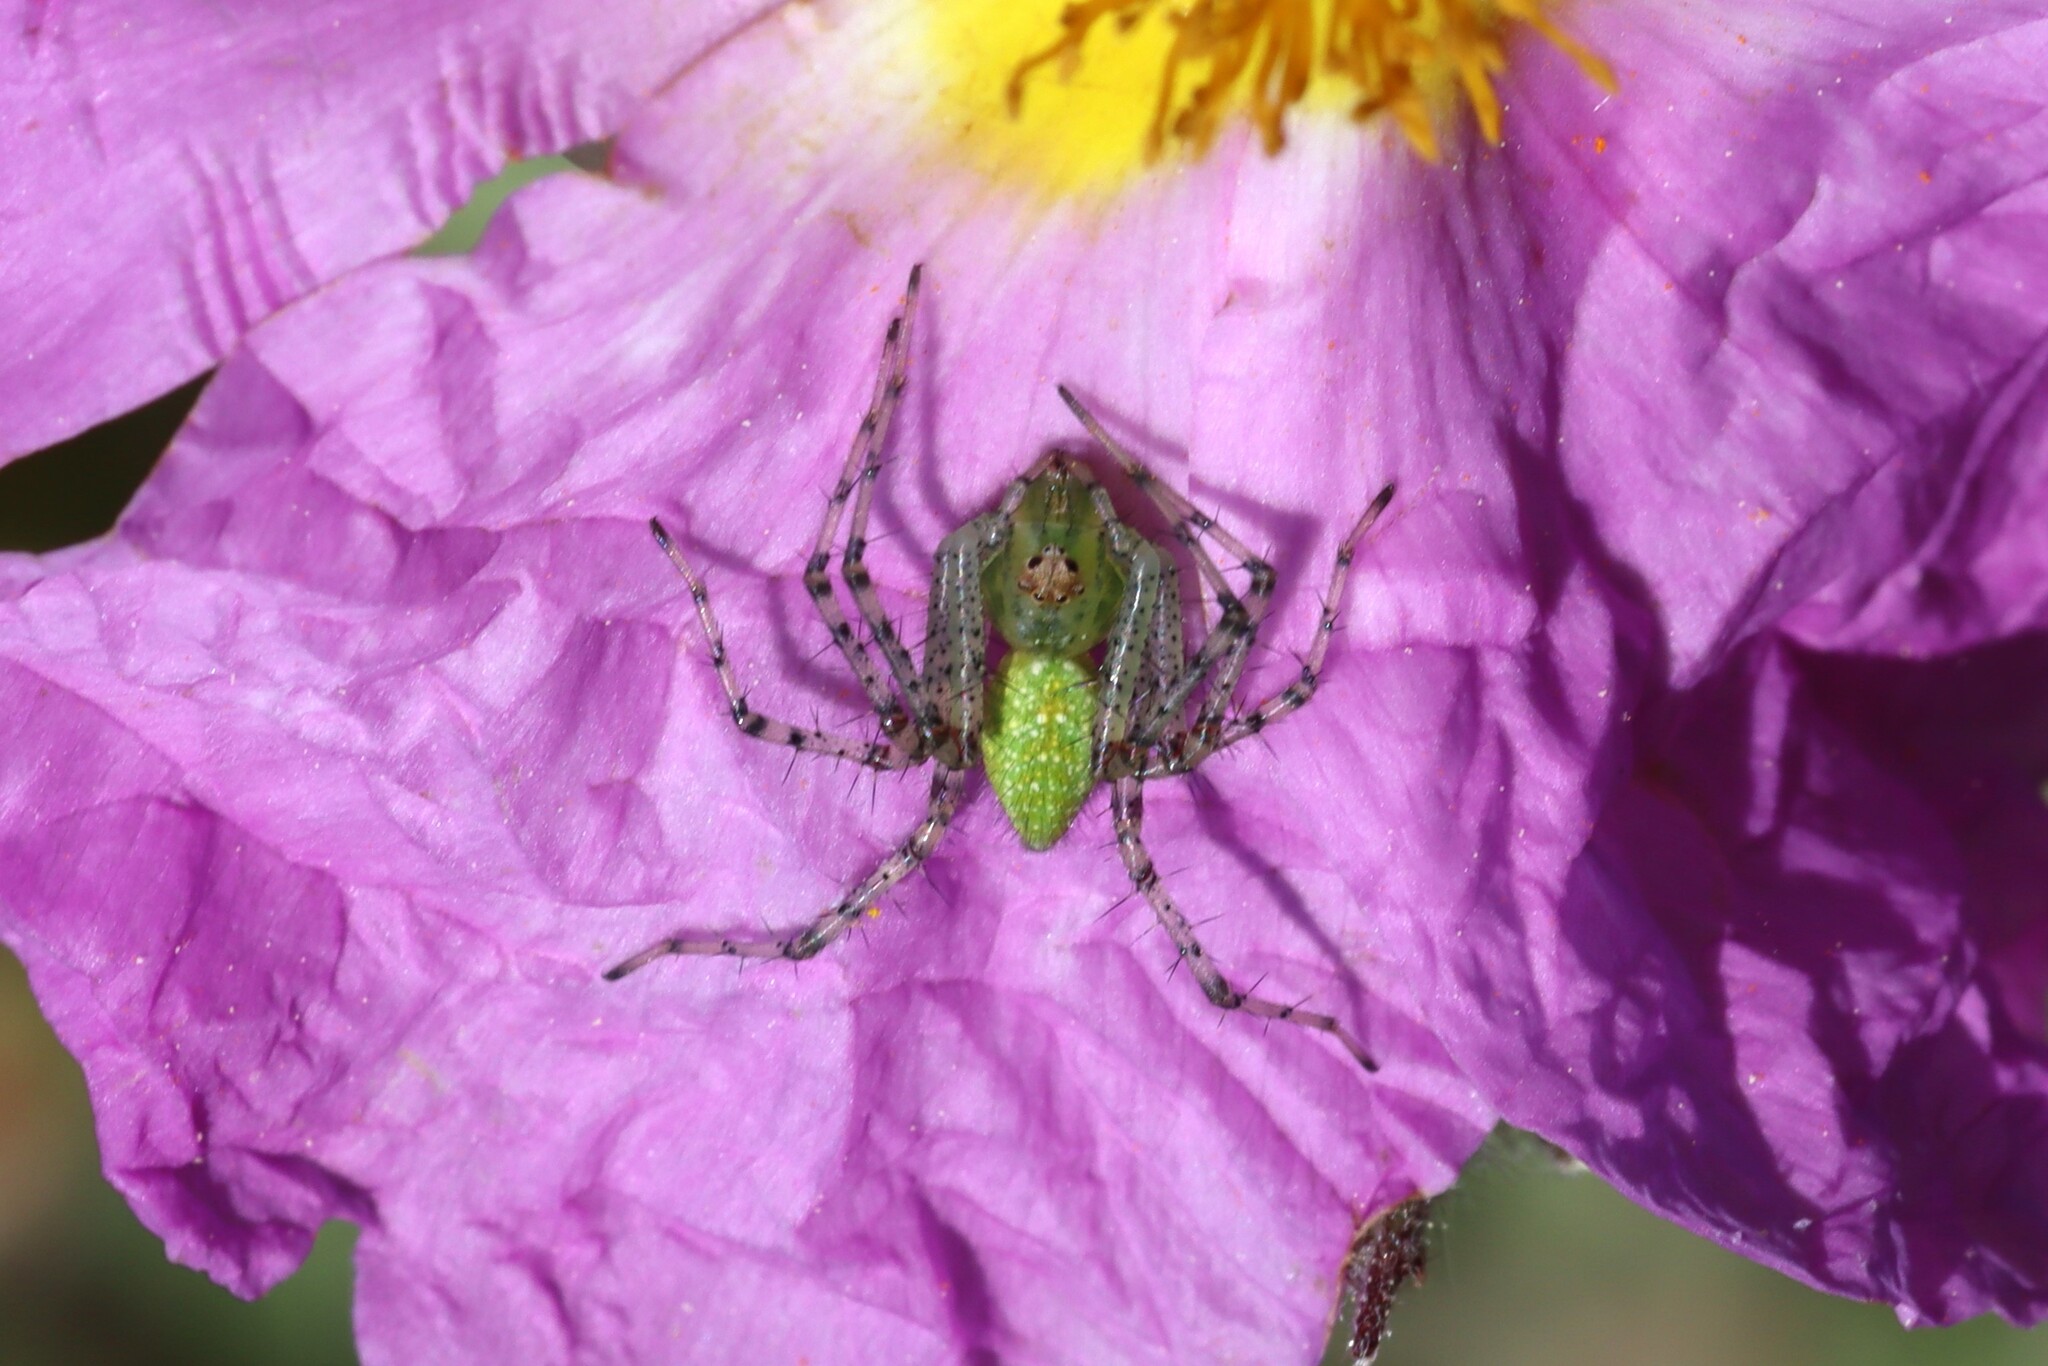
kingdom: Animalia
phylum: Arthropoda
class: Arachnida
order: Araneae
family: Oxyopidae
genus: Peucetia
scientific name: Peucetia virescens
